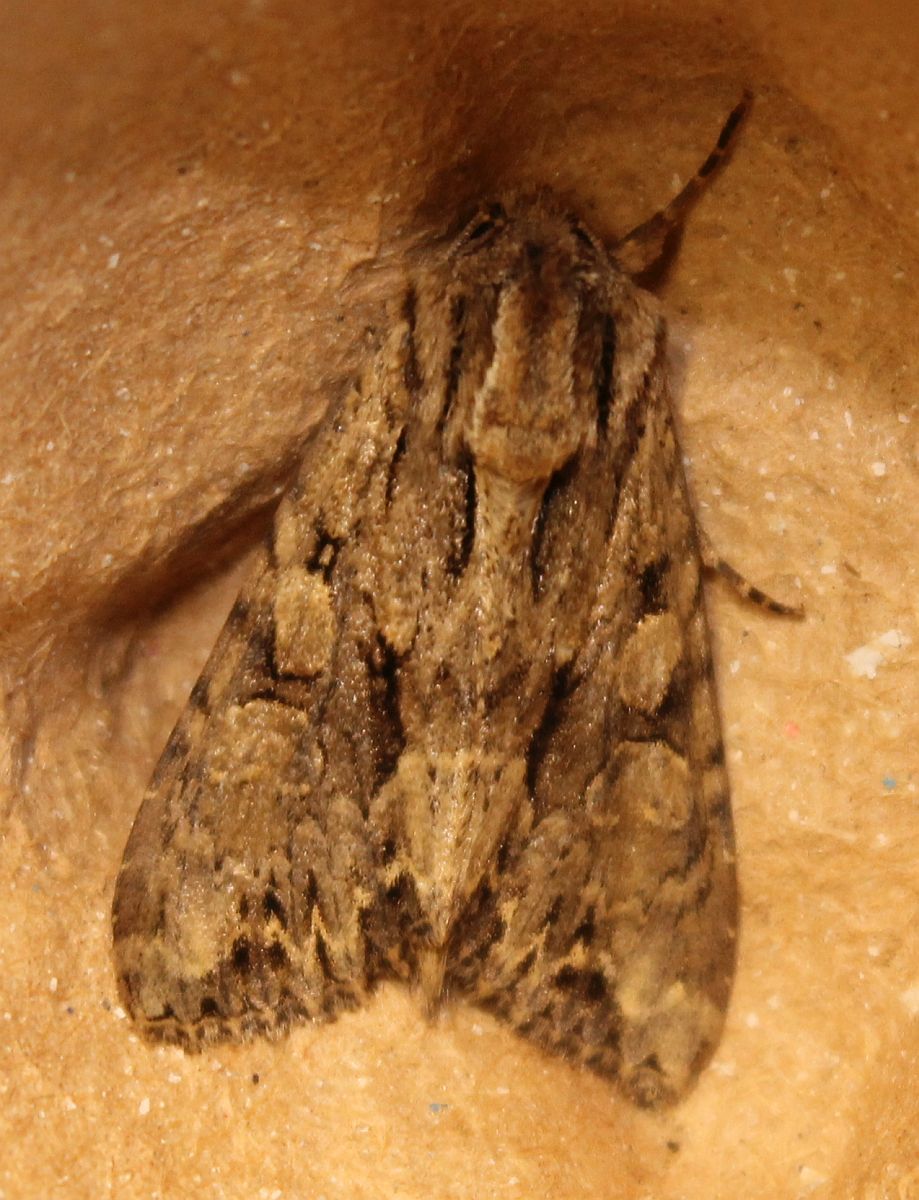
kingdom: Animalia
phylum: Arthropoda
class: Insecta
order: Lepidoptera
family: Noctuidae
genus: Apamea
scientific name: Apamea monoglypha
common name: Dark arches
